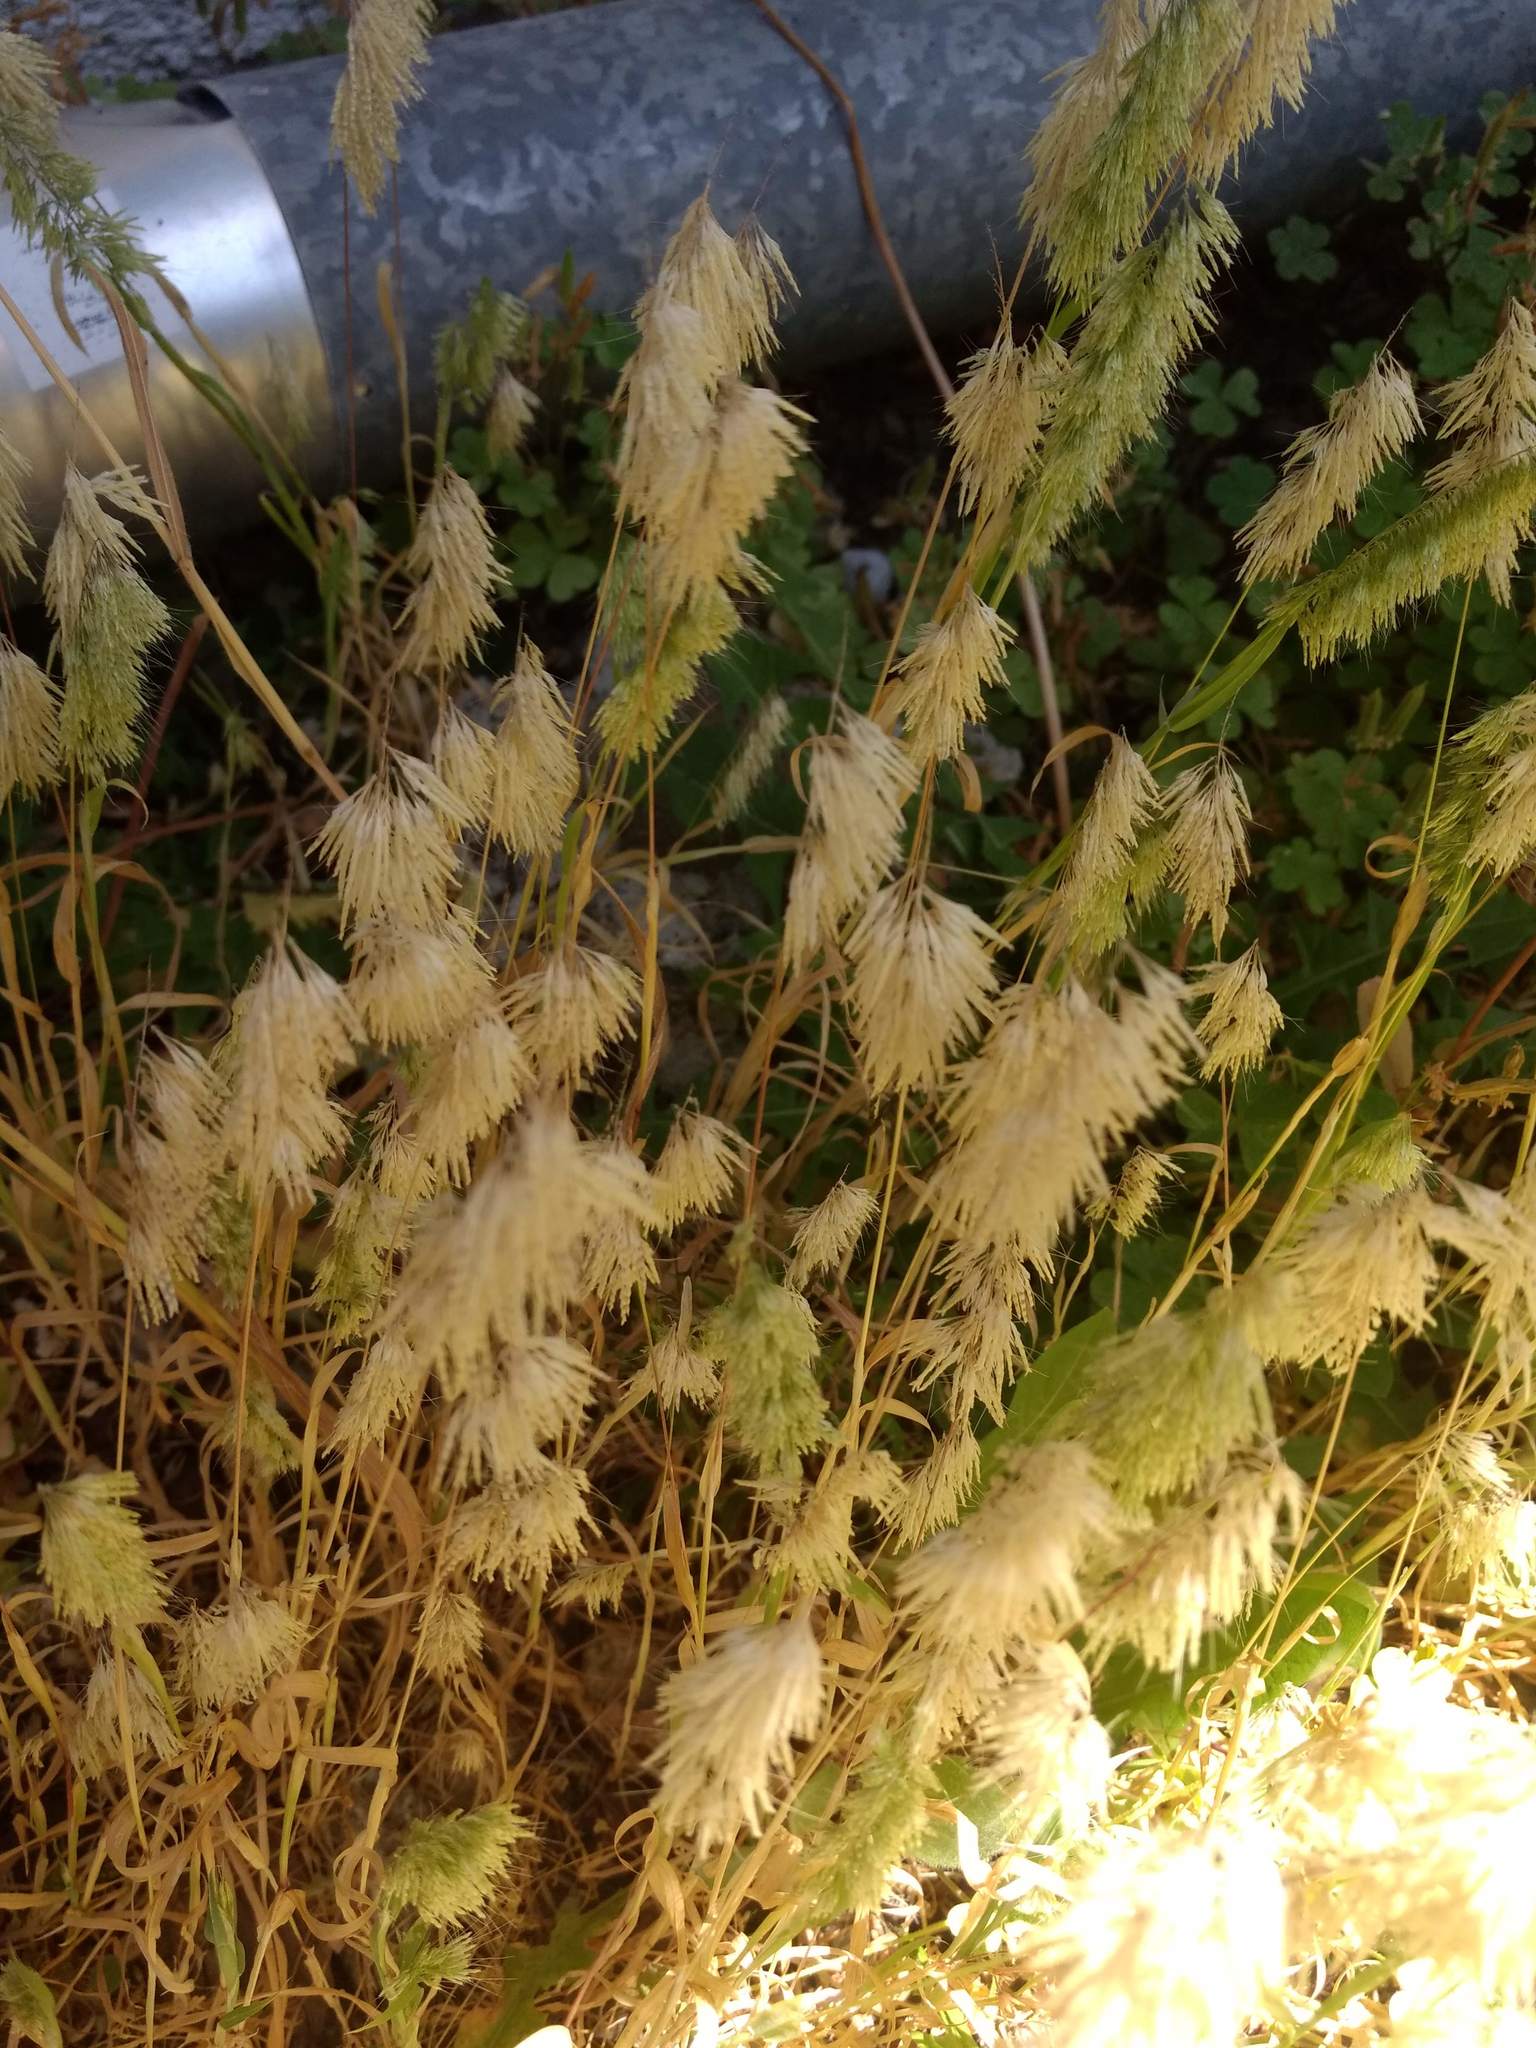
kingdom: Plantae
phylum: Tracheophyta
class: Liliopsida
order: Poales
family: Poaceae
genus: Lamarckia
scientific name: Lamarckia aurea
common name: Golden dog's-tail
